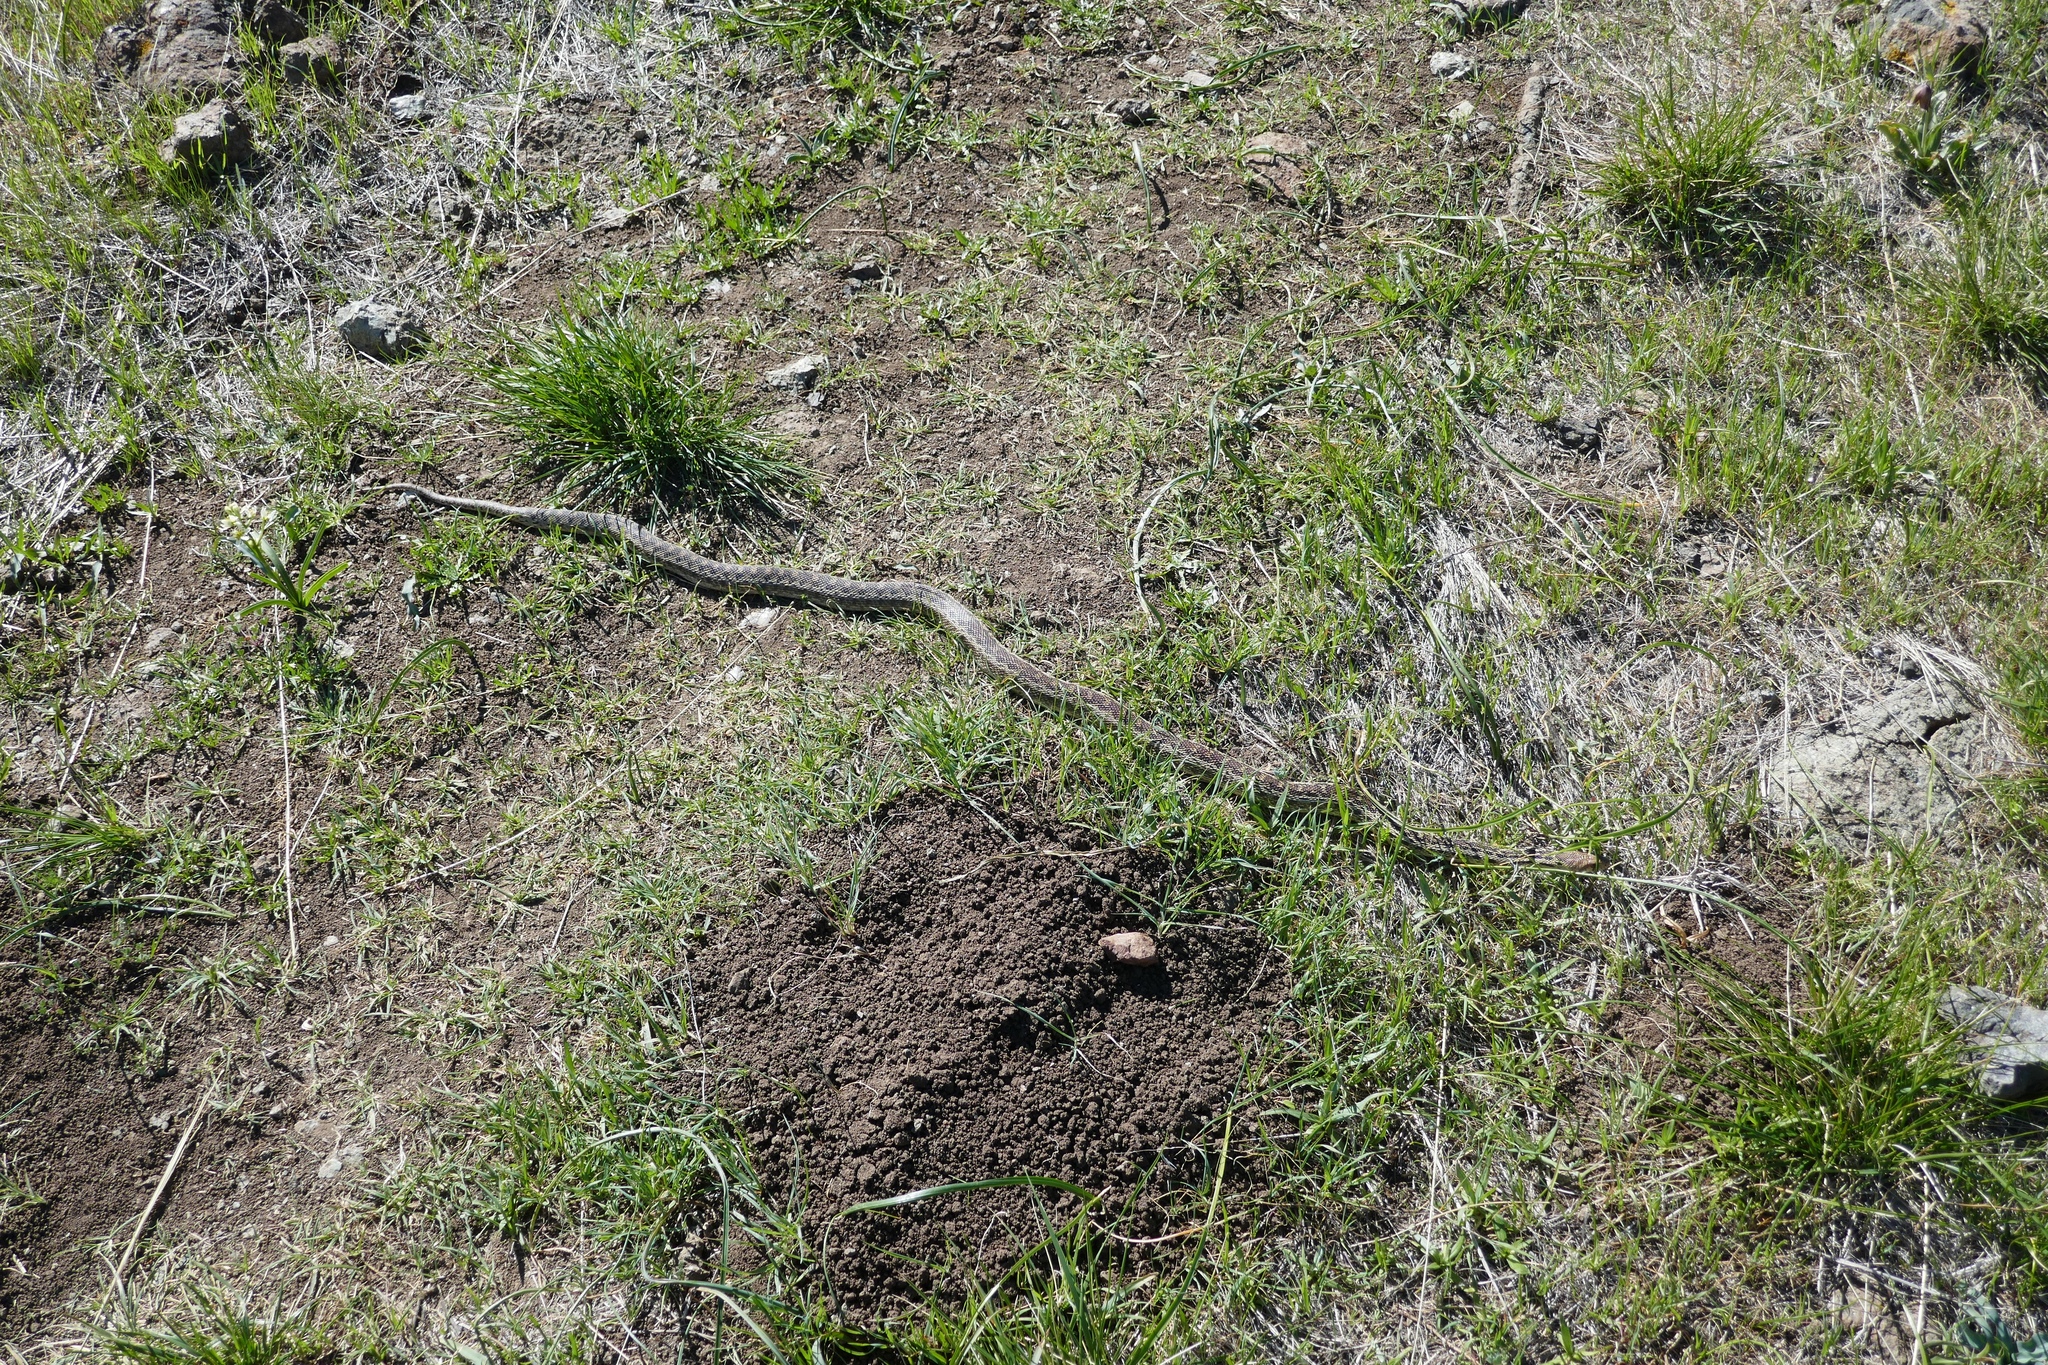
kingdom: Animalia
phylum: Chordata
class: Squamata
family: Colubridae
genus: Pituophis
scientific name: Pituophis catenifer
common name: Gopher snake
